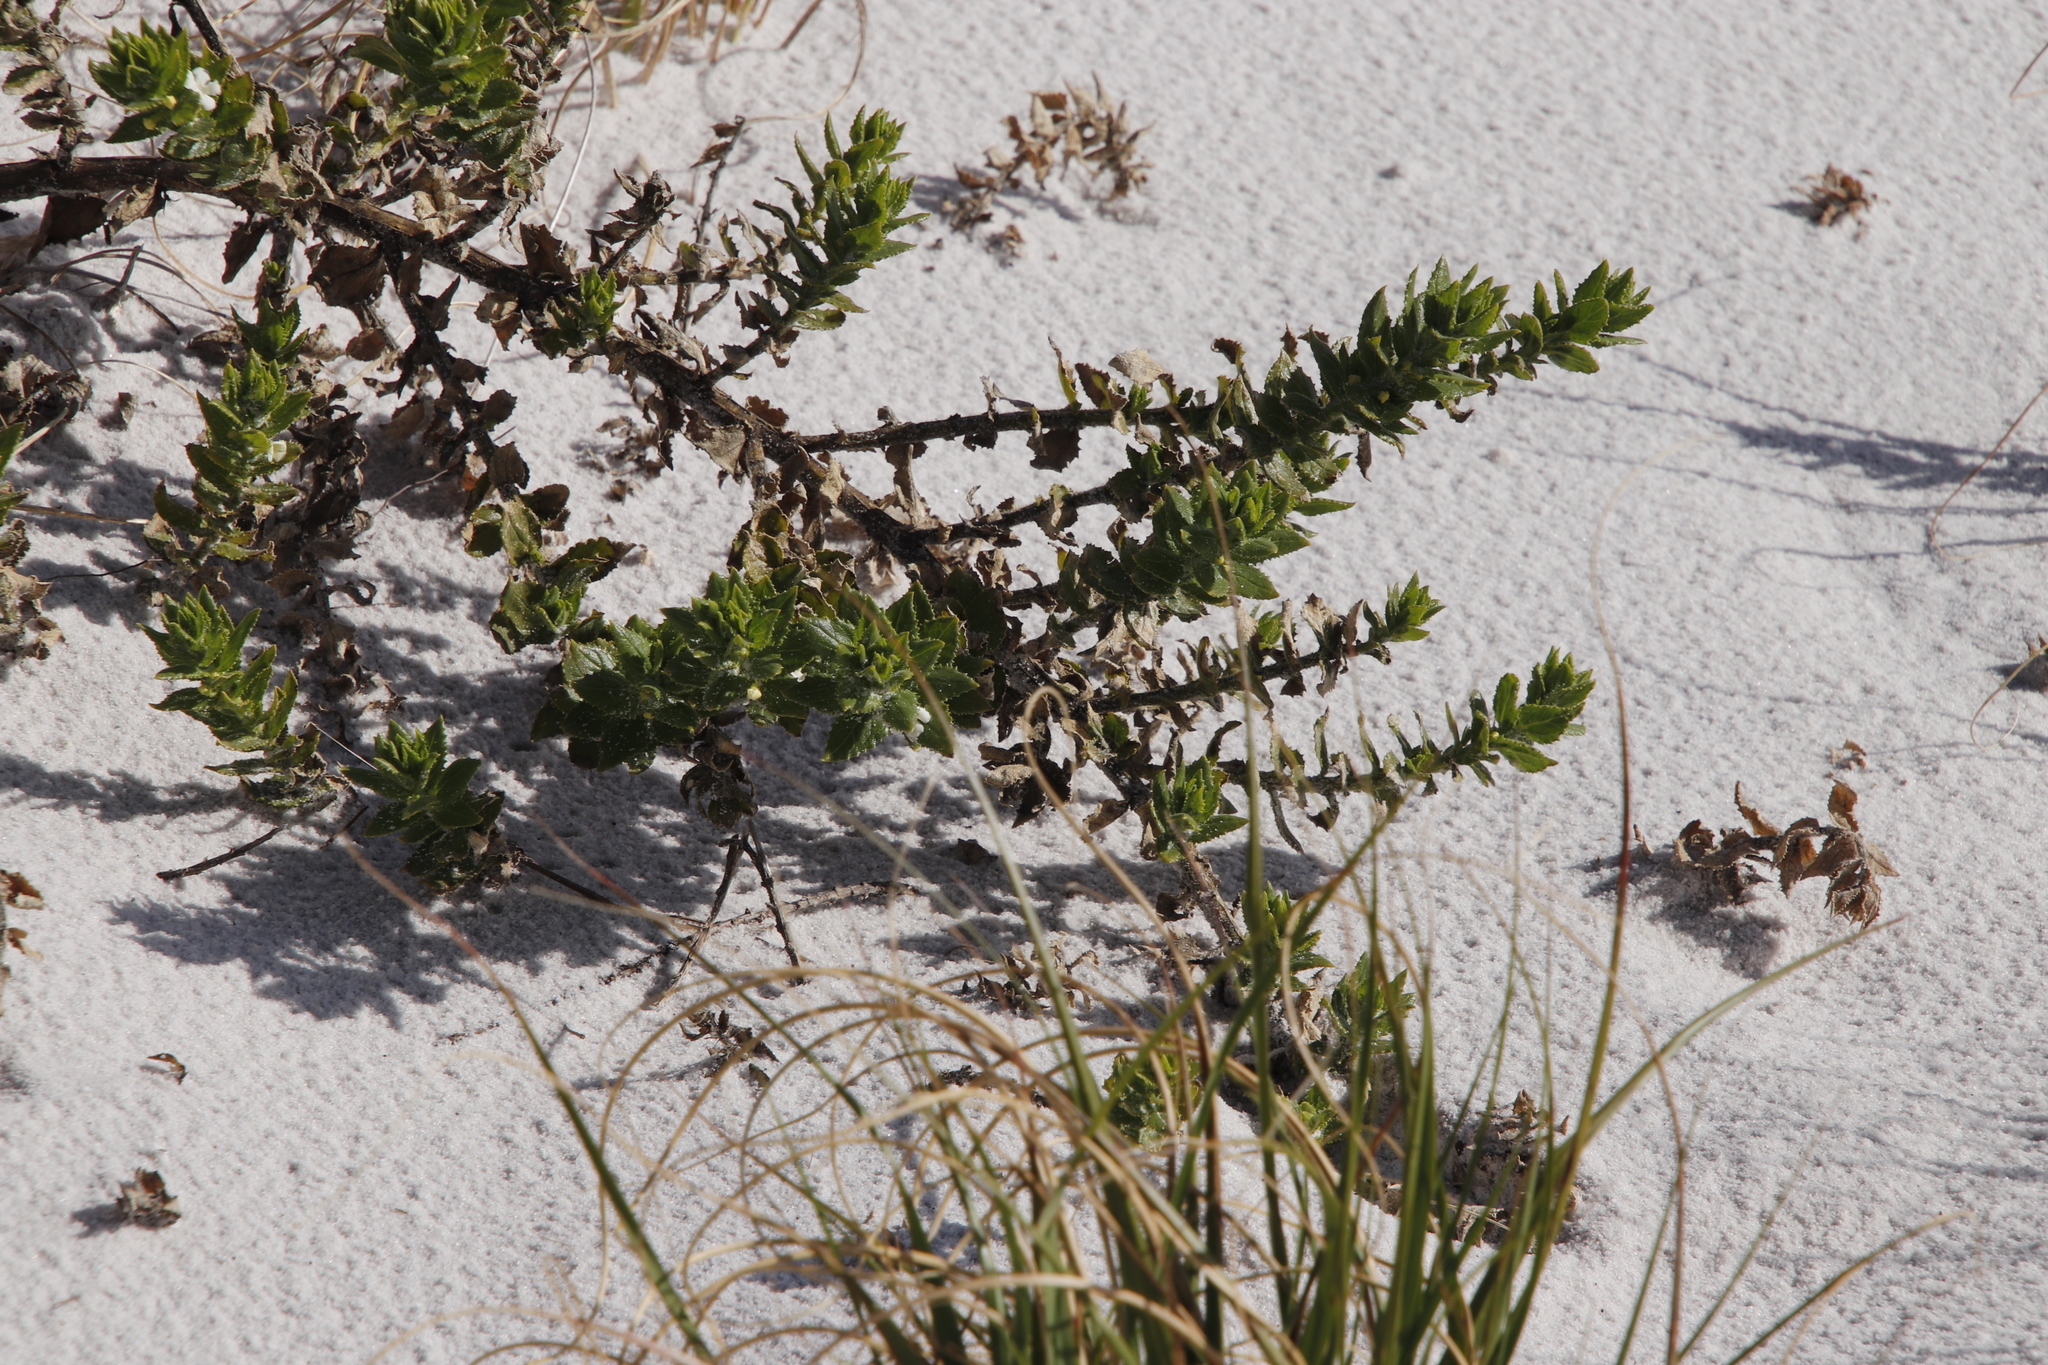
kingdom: Plantae
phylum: Tracheophyta
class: Magnoliopsida
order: Lamiales
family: Scrophulariaceae
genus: Oftia
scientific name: Oftia africana
